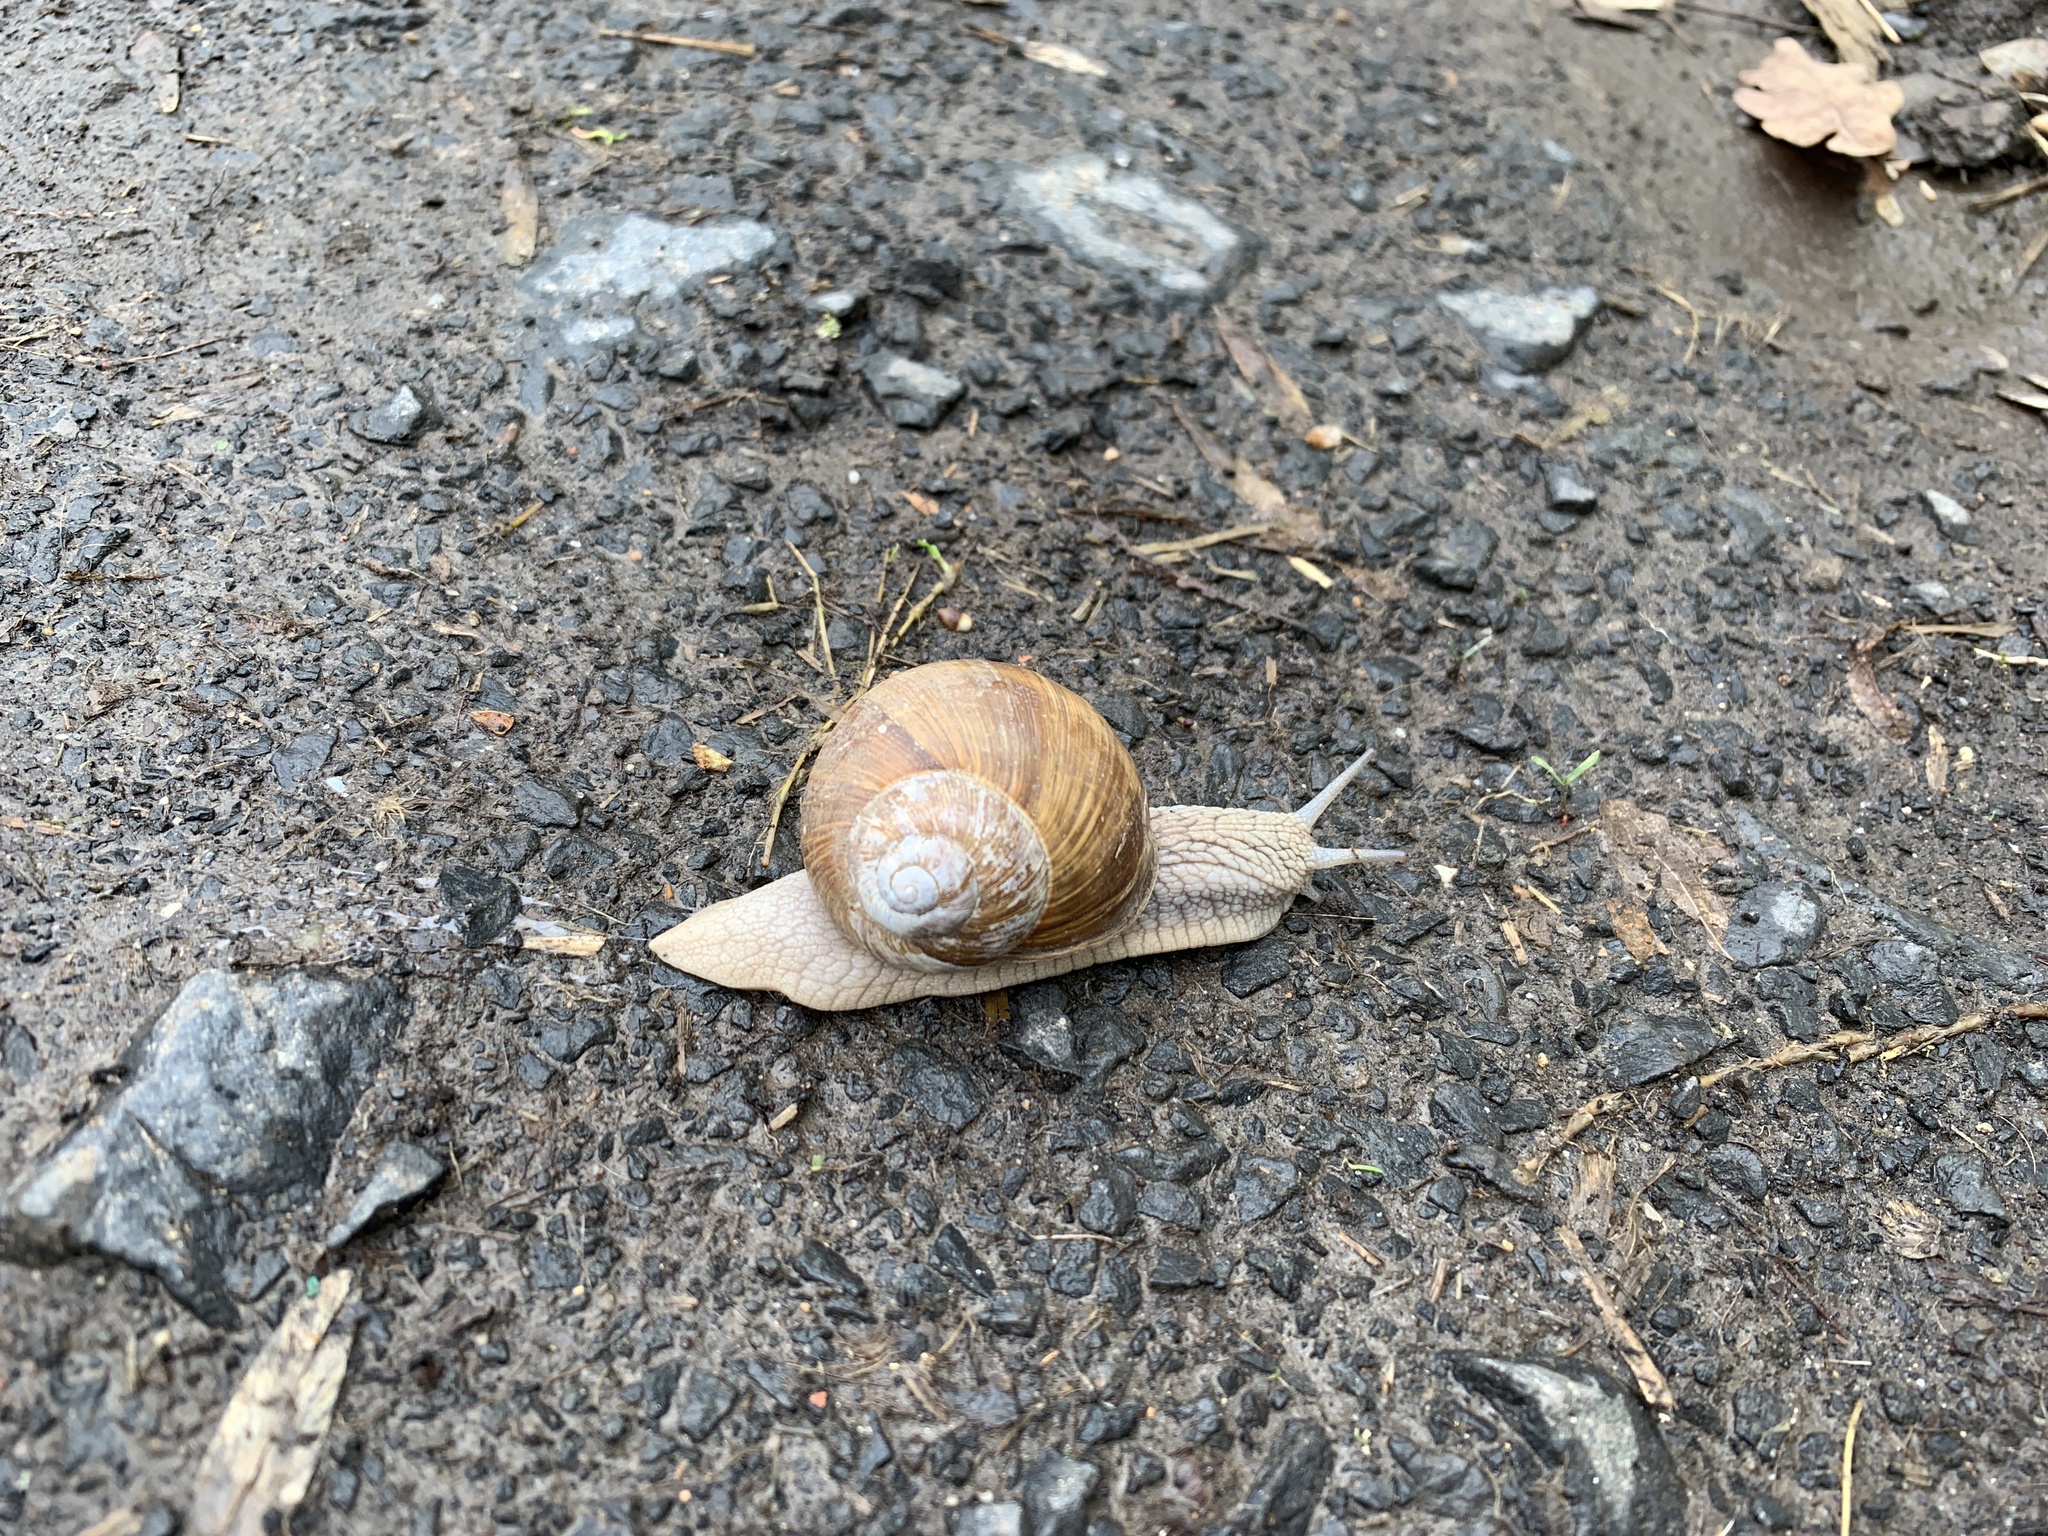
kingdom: Animalia
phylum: Mollusca
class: Gastropoda
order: Stylommatophora
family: Helicidae
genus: Helix
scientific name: Helix pomatia
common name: Roman snail
